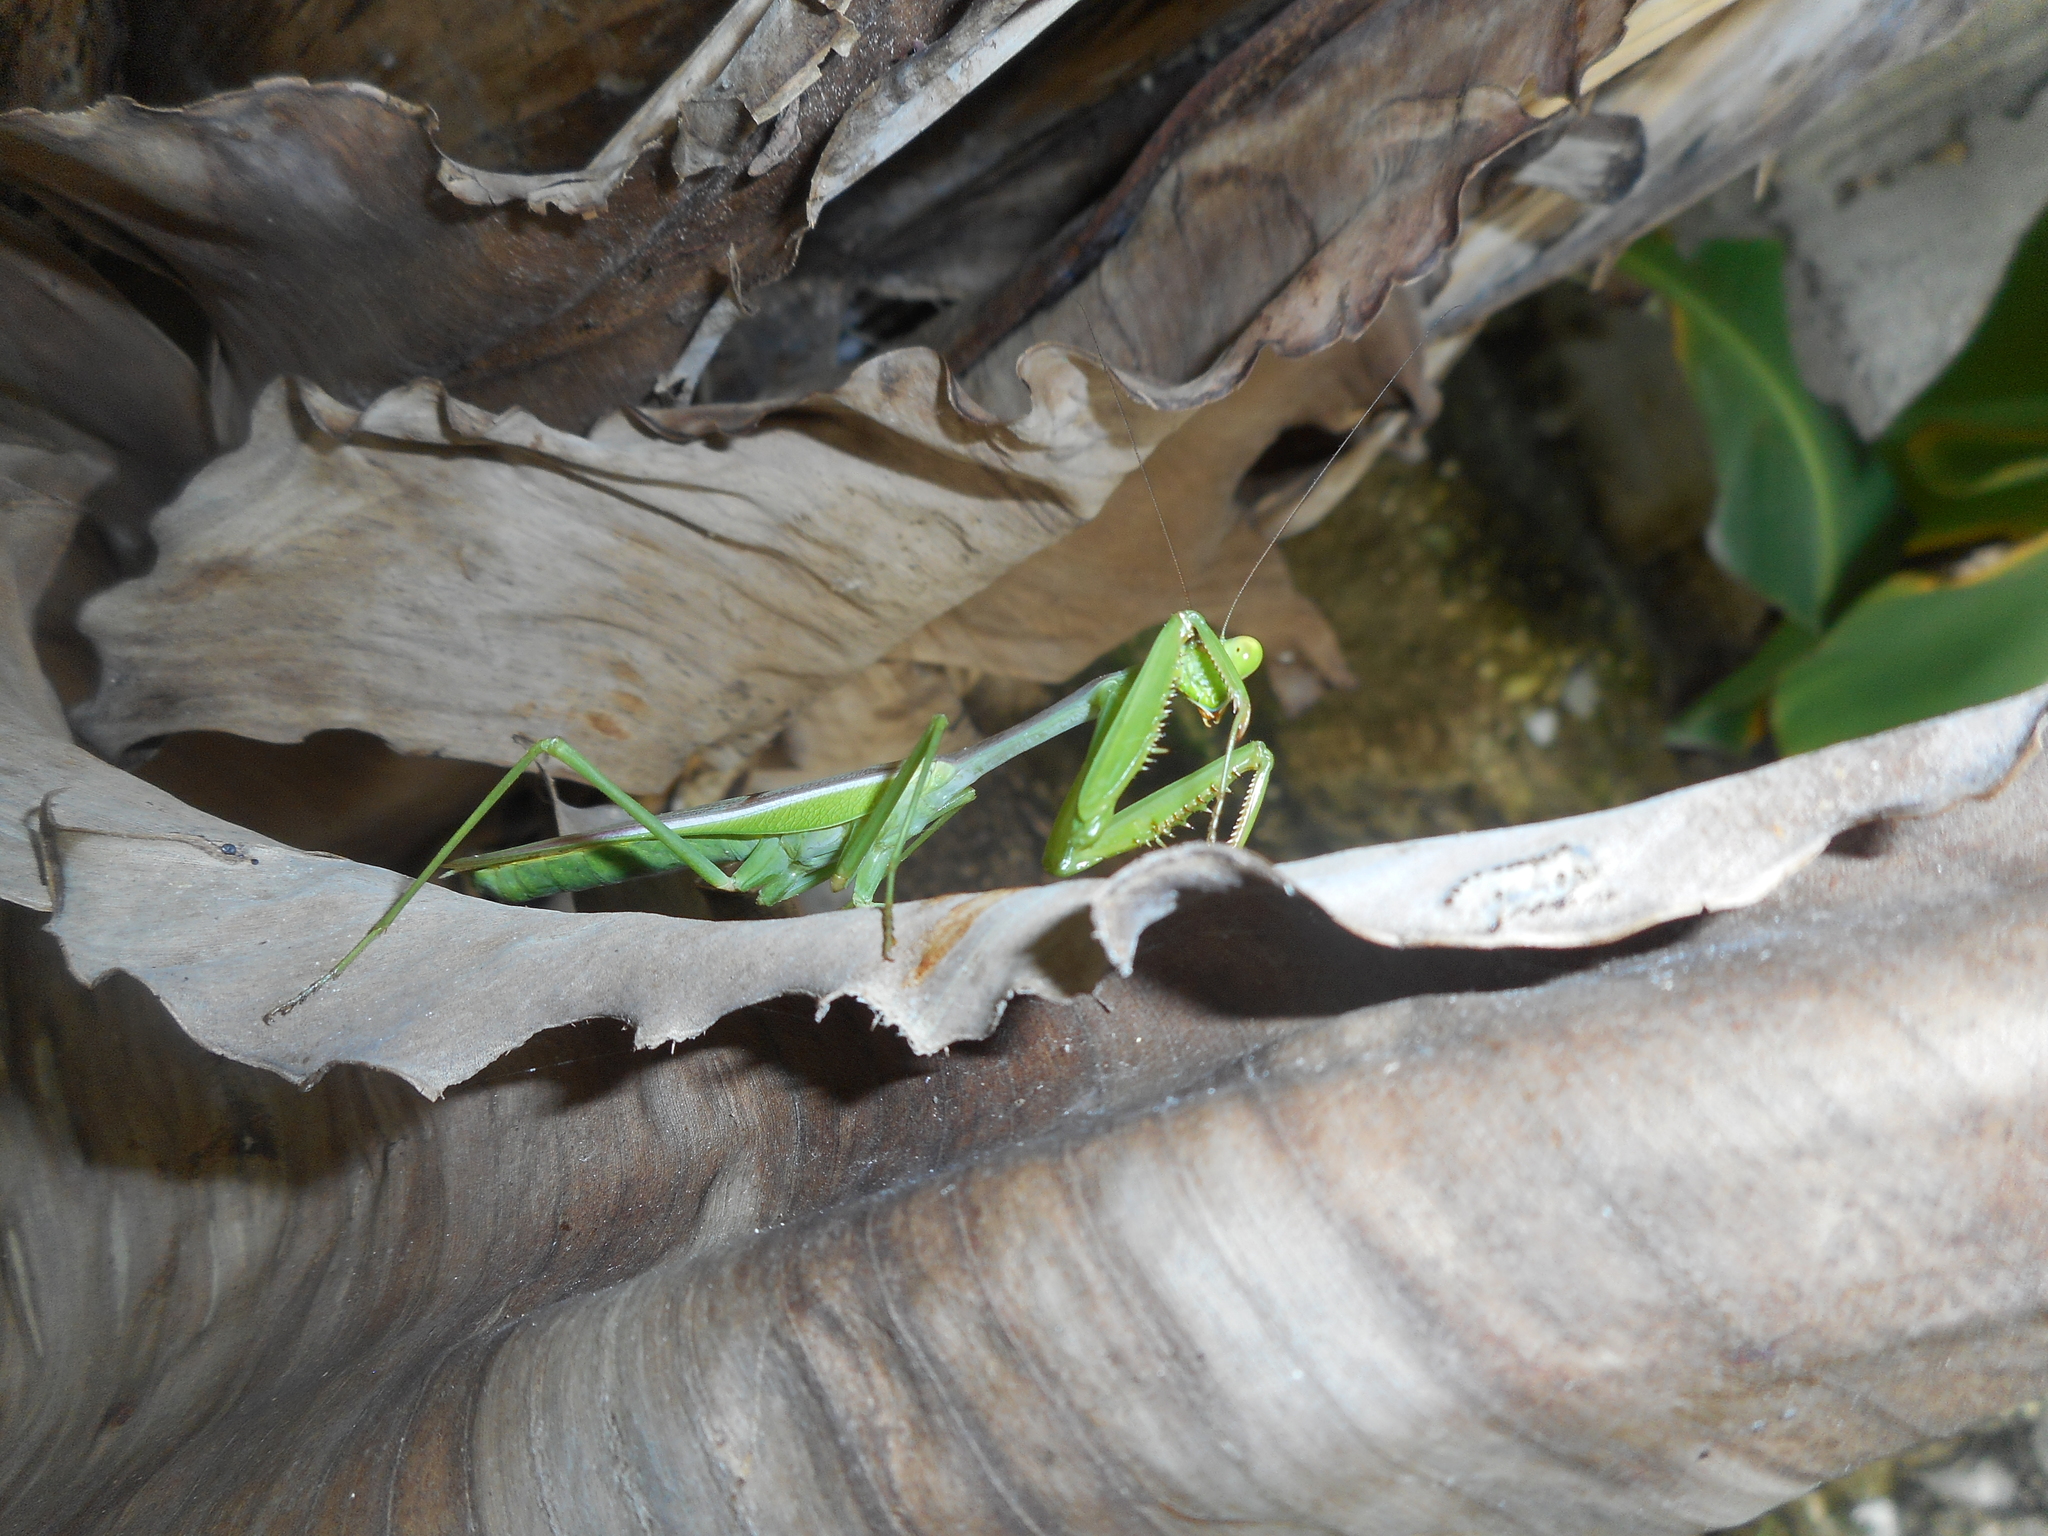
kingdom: Animalia
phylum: Arthropoda
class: Insecta
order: Mantodea
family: Mantidae
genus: Stagmomantis
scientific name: Stagmomantis limbata
